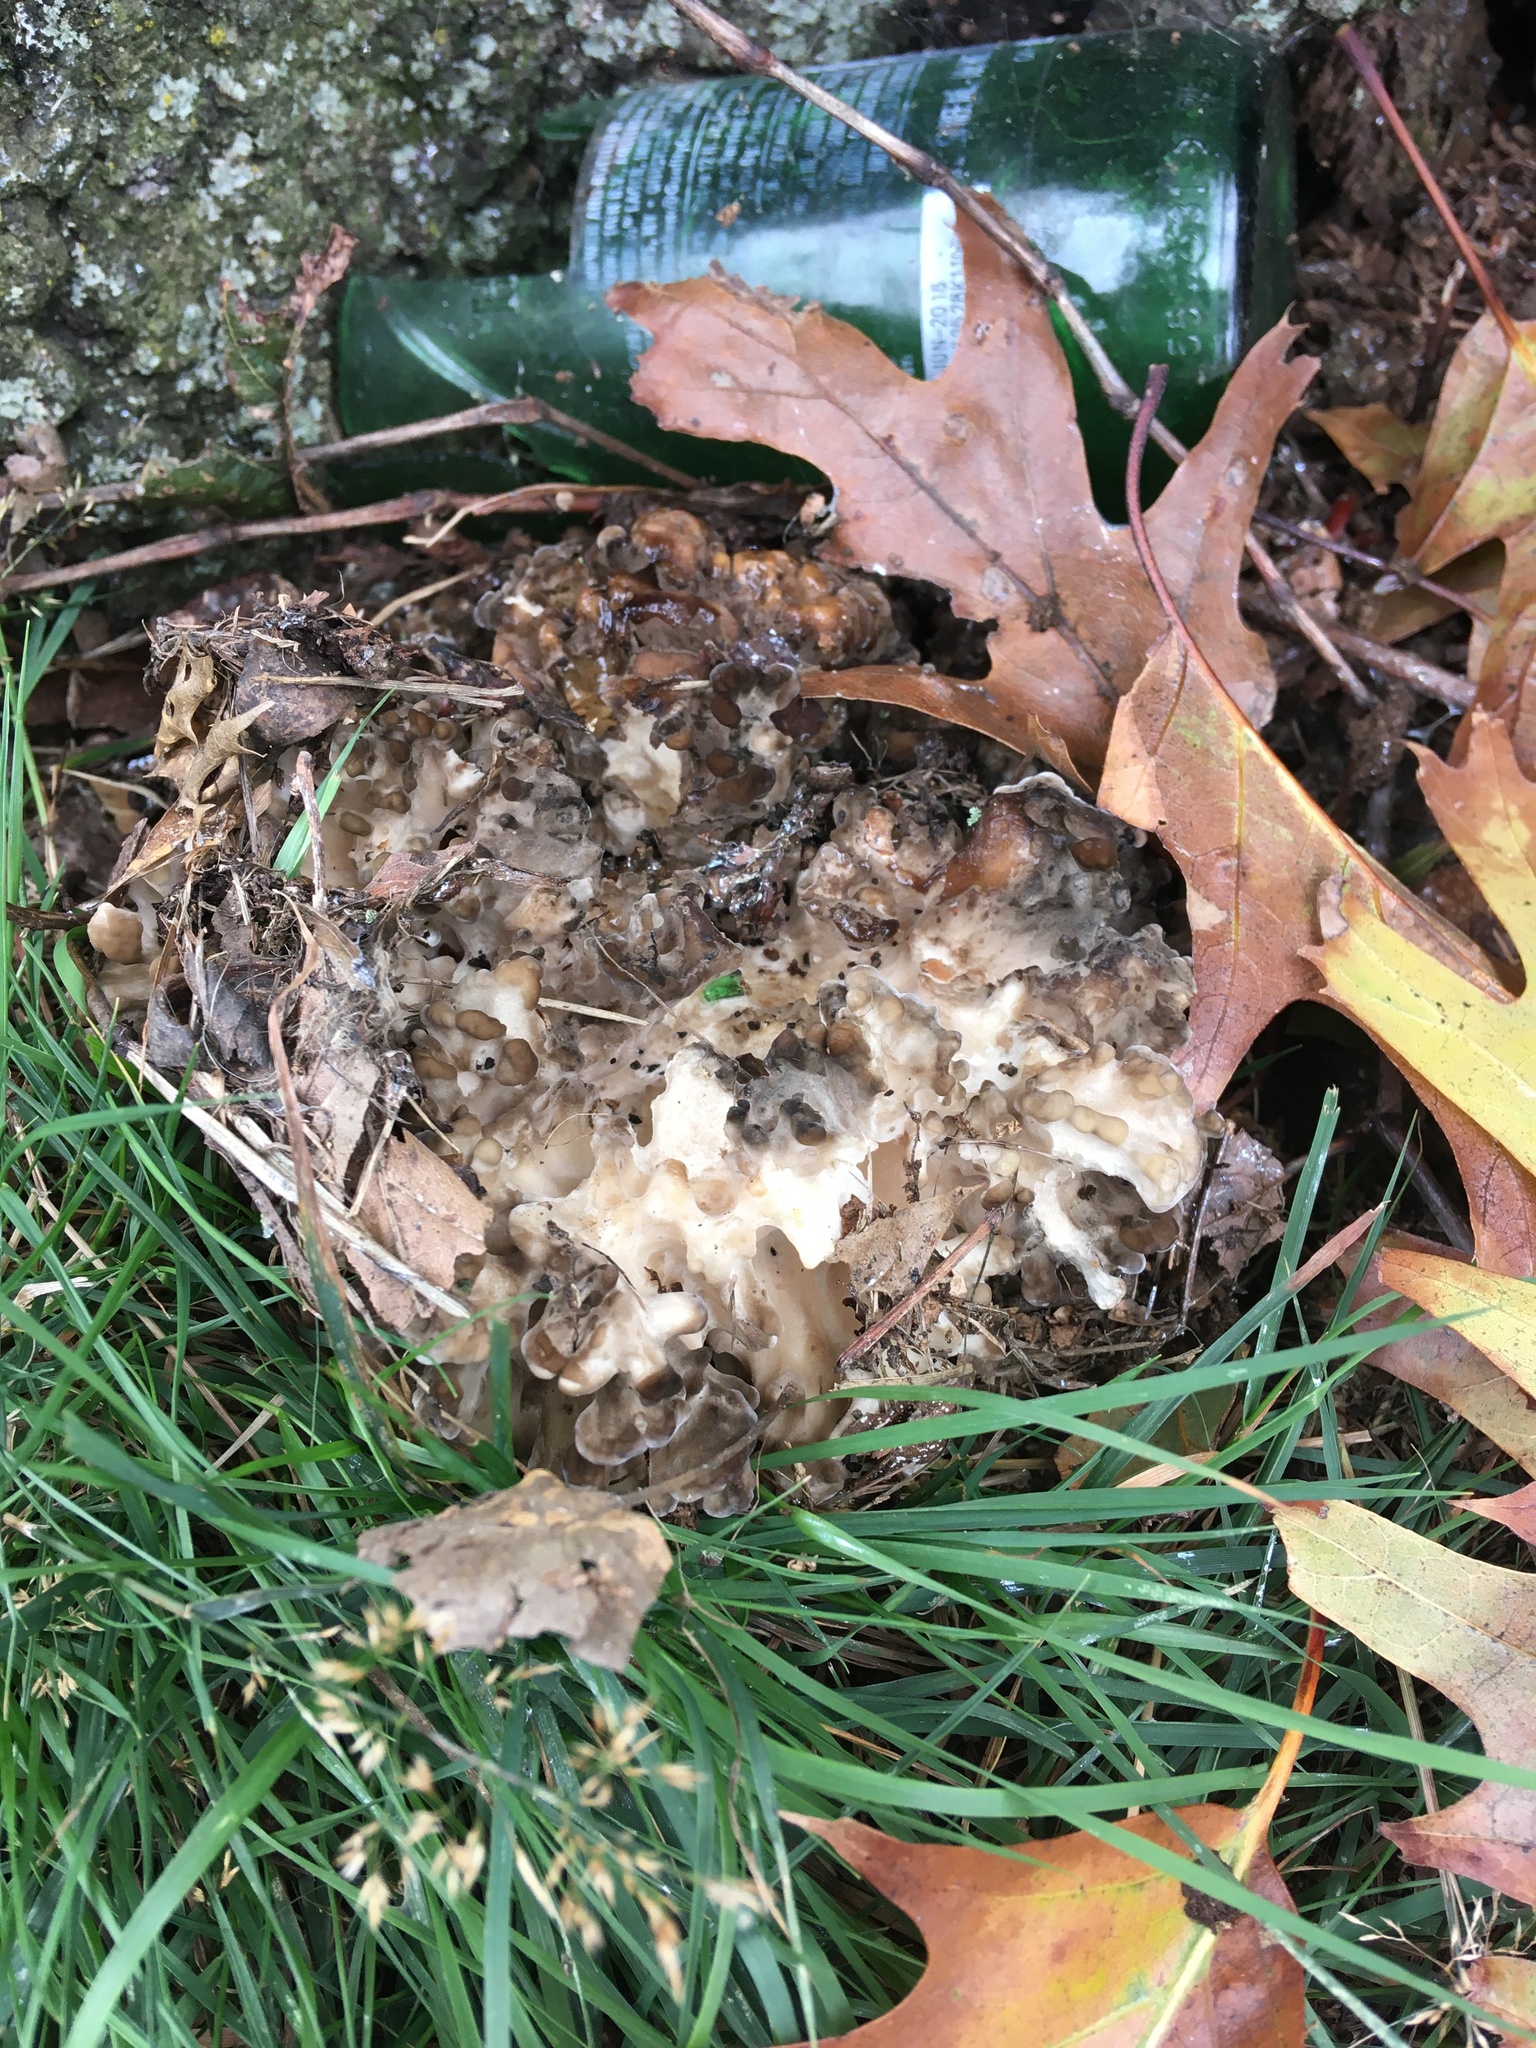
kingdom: Fungi
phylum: Basidiomycota
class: Agaricomycetes
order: Polyporales
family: Grifolaceae
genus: Grifola
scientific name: Grifola frondosa
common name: Hen of the woods
